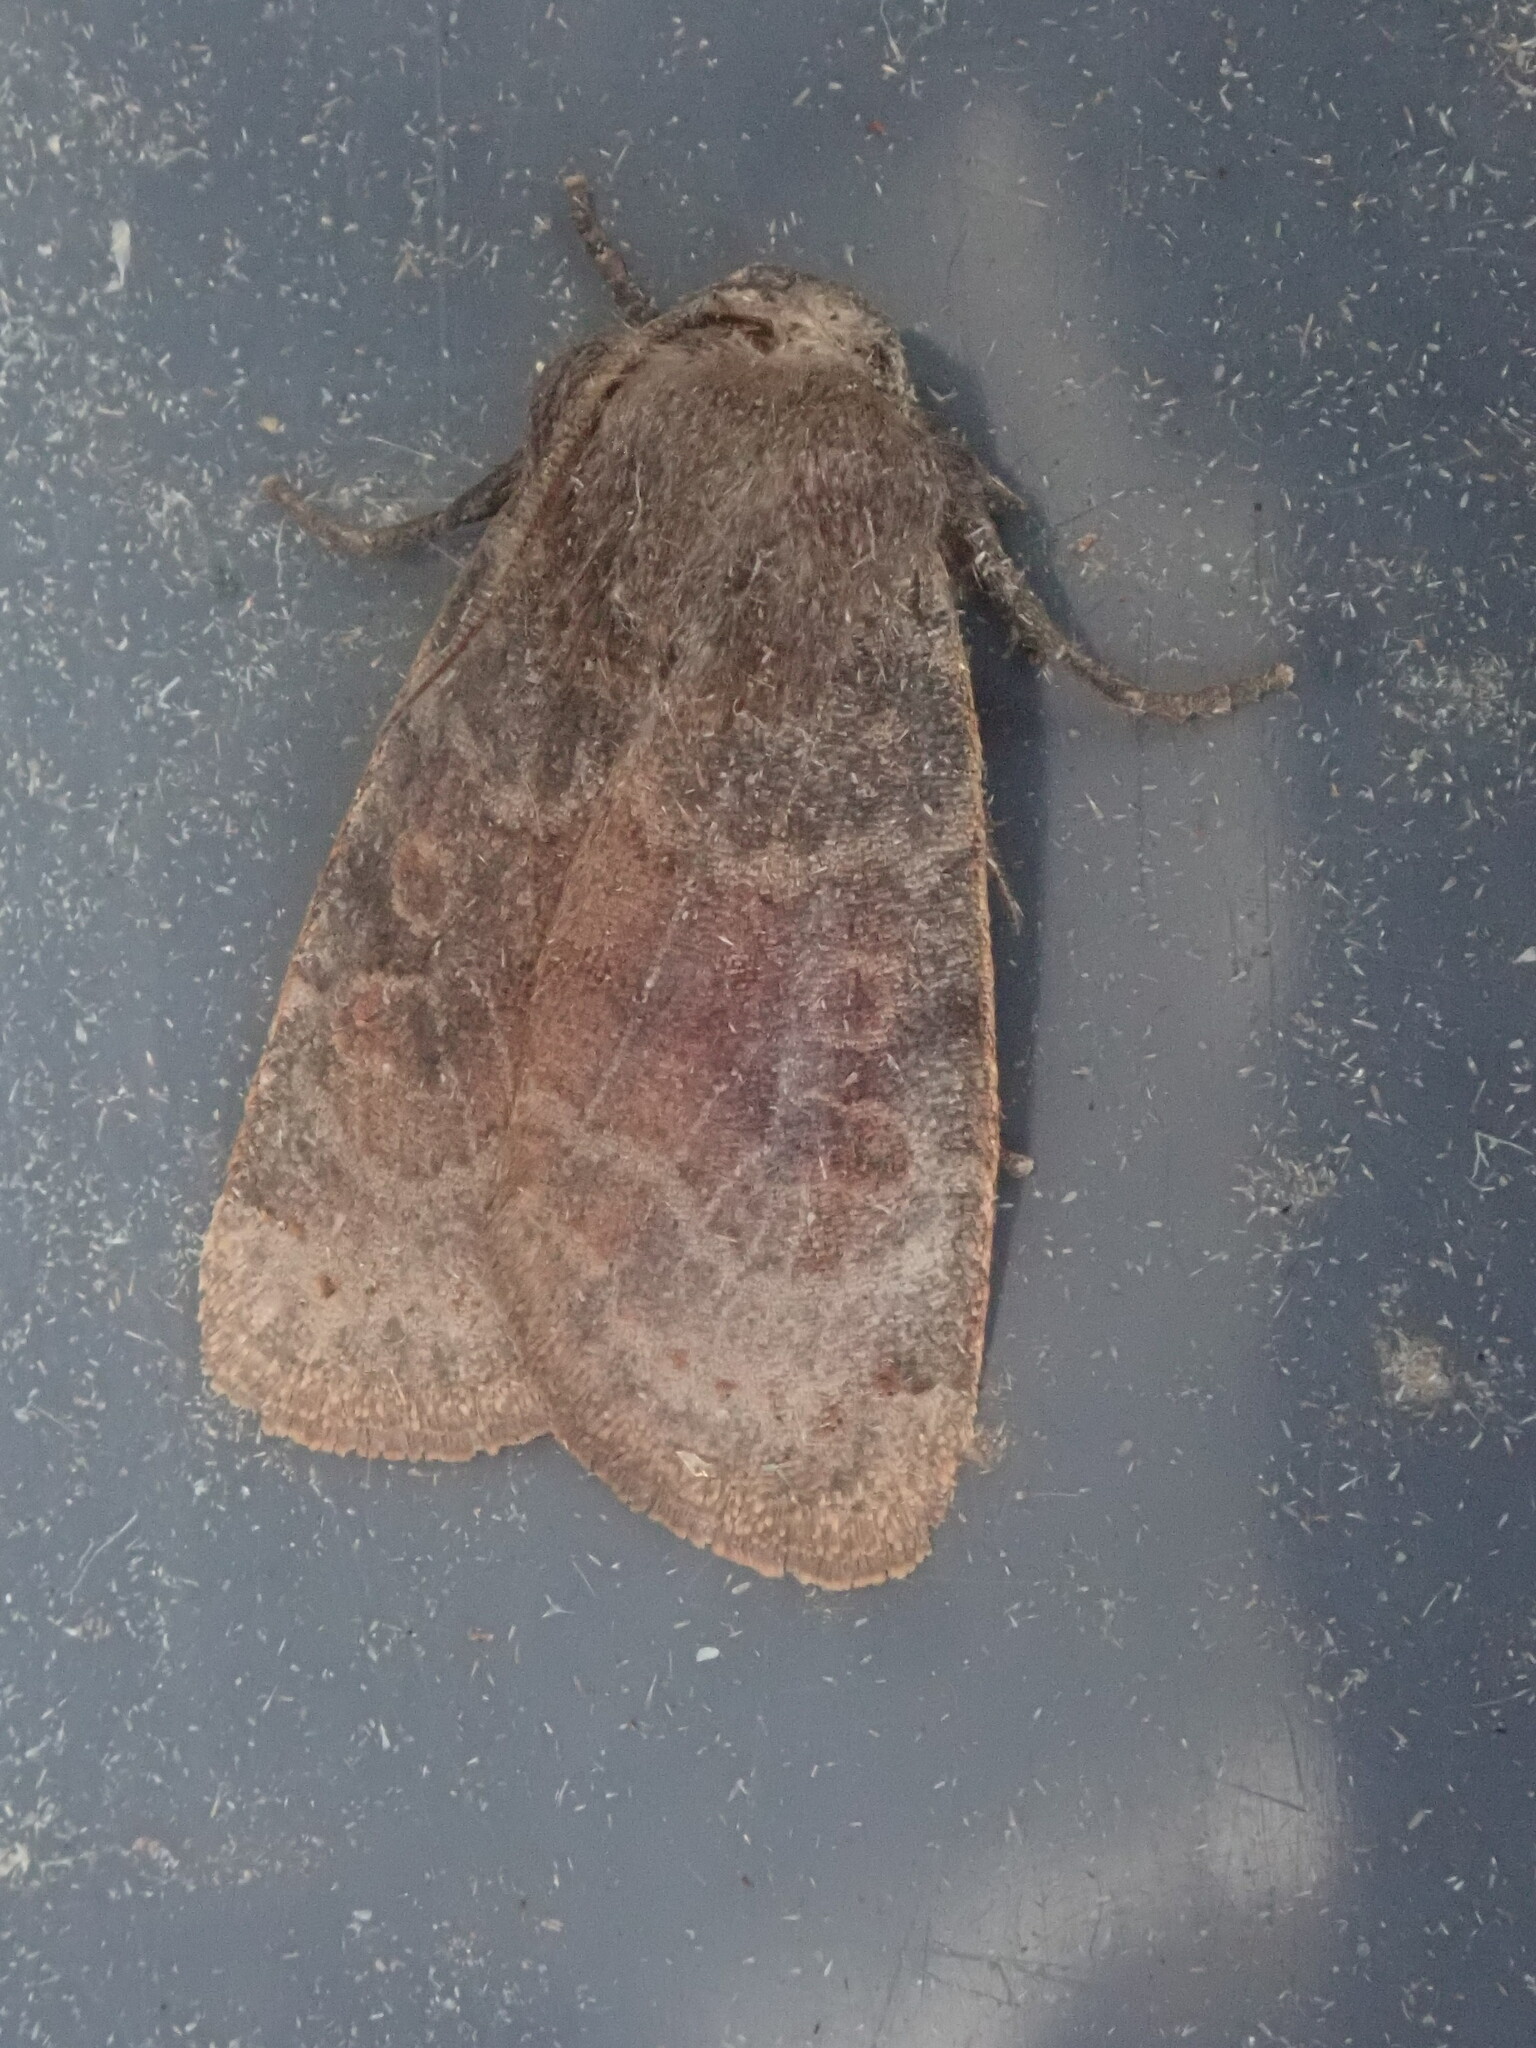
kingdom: Animalia
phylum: Arthropoda
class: Insecta
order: Lepidoptera
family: Noctuidae
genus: Homoglaea
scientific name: Homoglaea hircina
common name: Goat sallow
